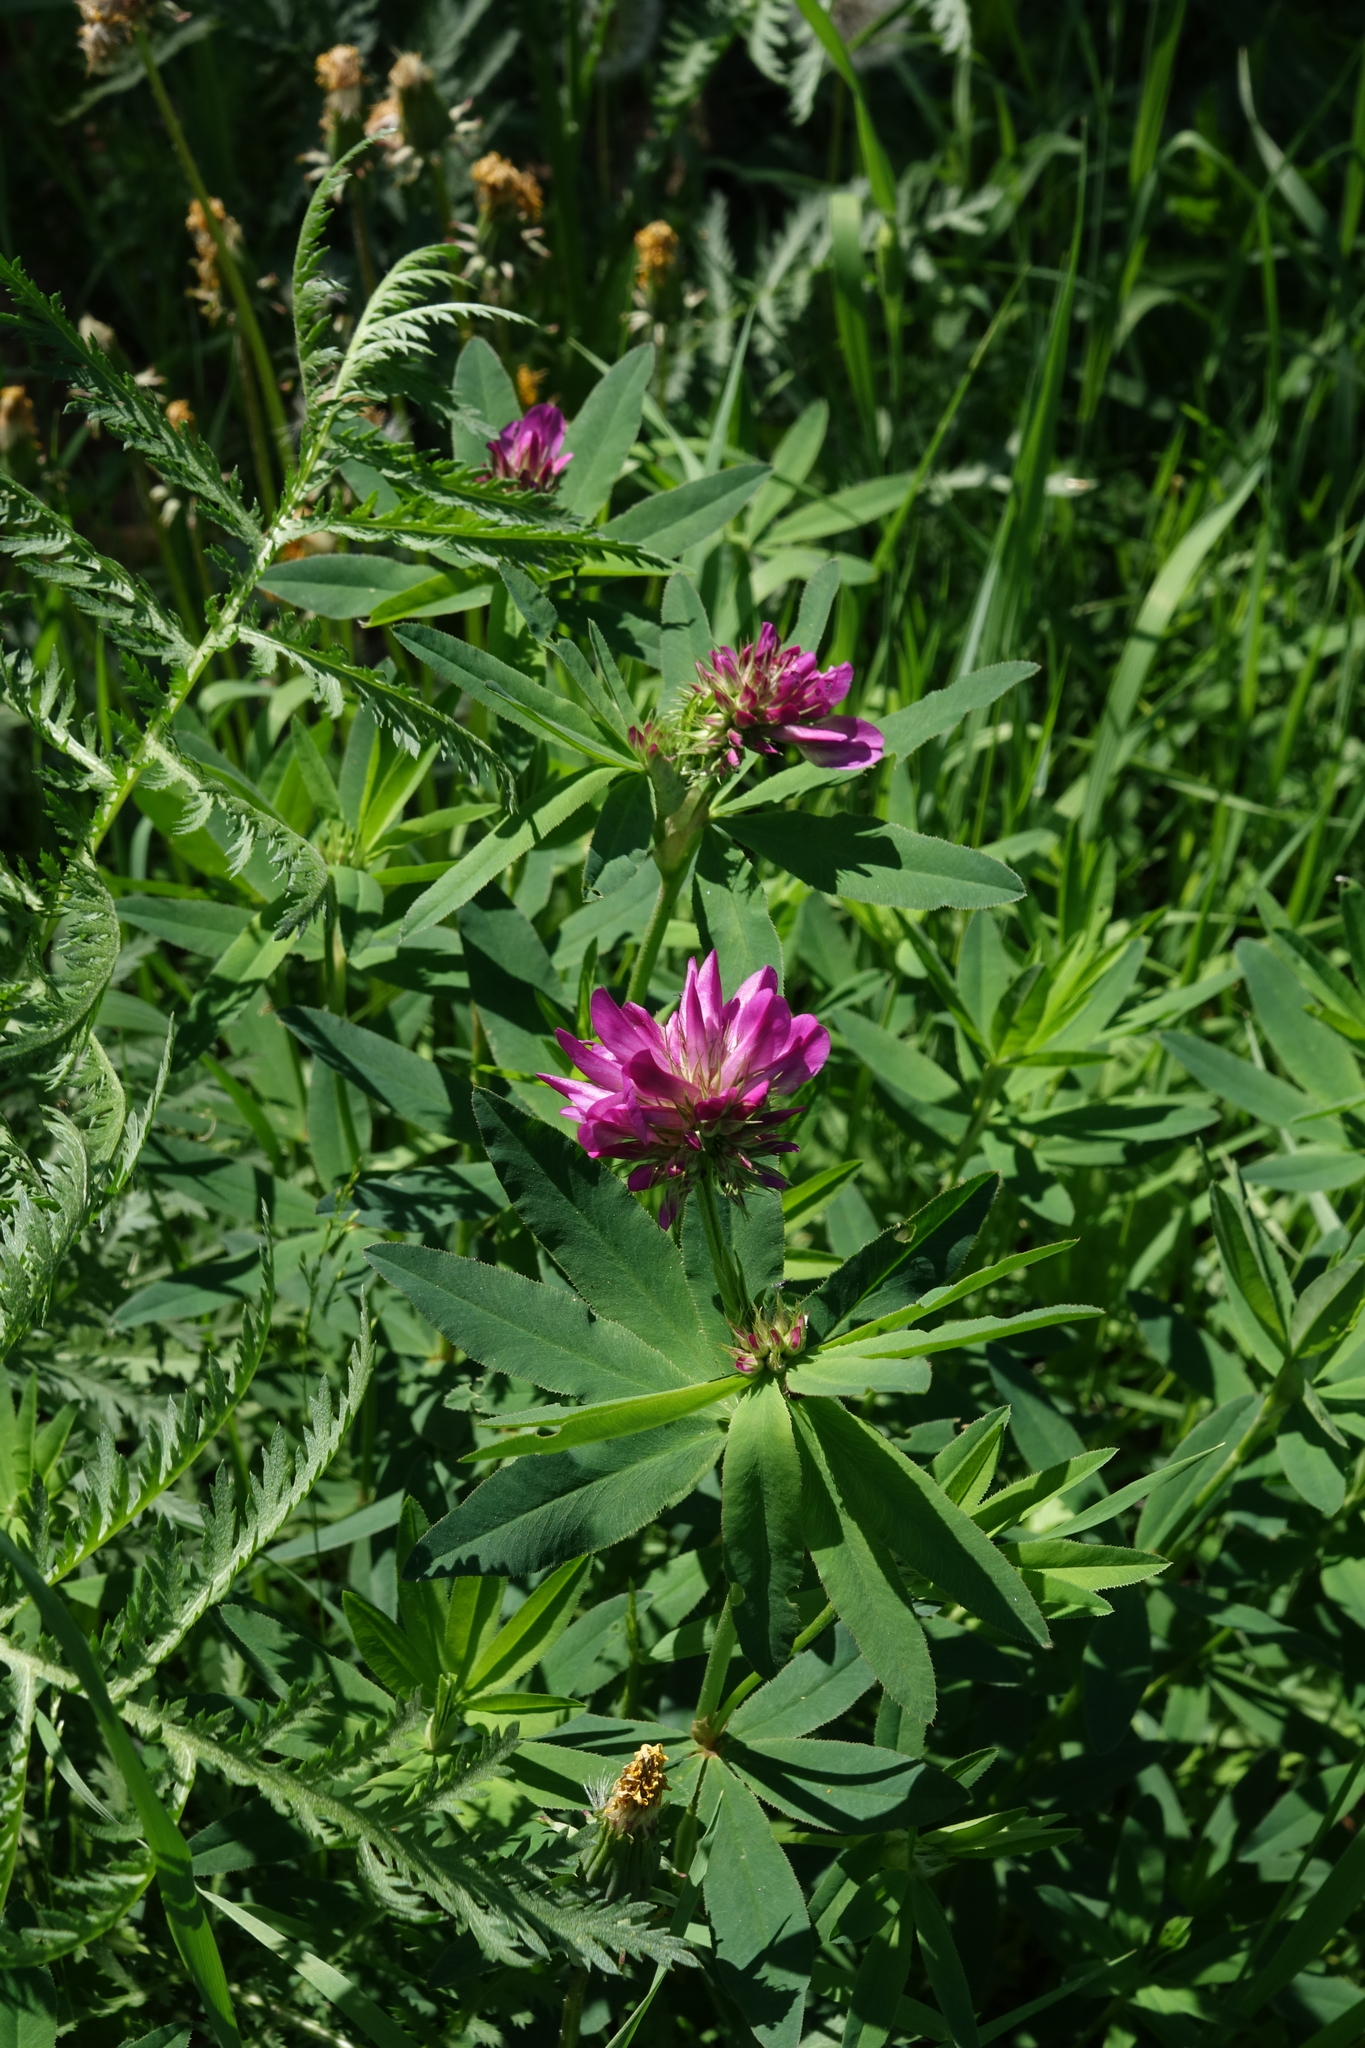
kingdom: Plantae
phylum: Tracheophyta
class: Magnoliopsida
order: Fabales
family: Fabaceae
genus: Trifolium
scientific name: Trifolium lupinaster
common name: Lupine clover
